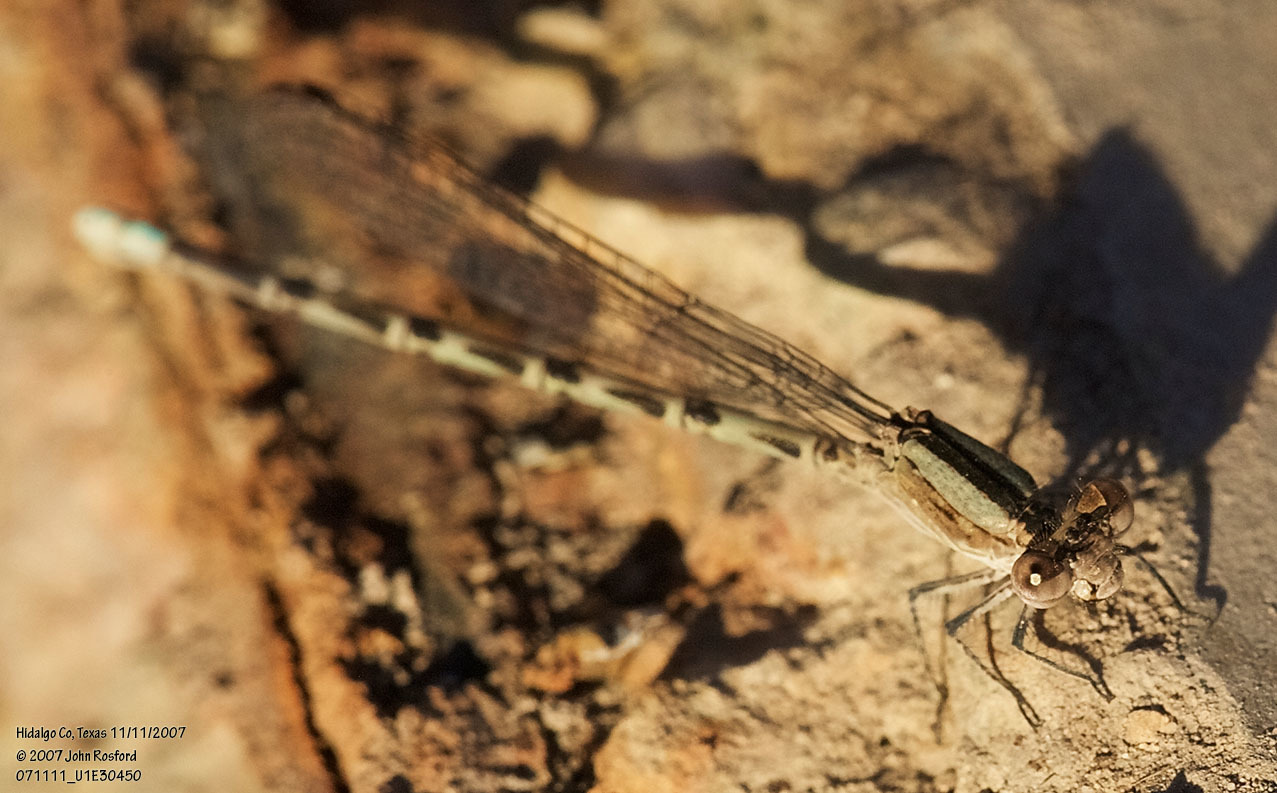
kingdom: Animalia
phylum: Arthropoda
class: Insecta
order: Odonata
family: Coenagrionidae
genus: Argia
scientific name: Argia immunda
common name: Kiowa dancer
